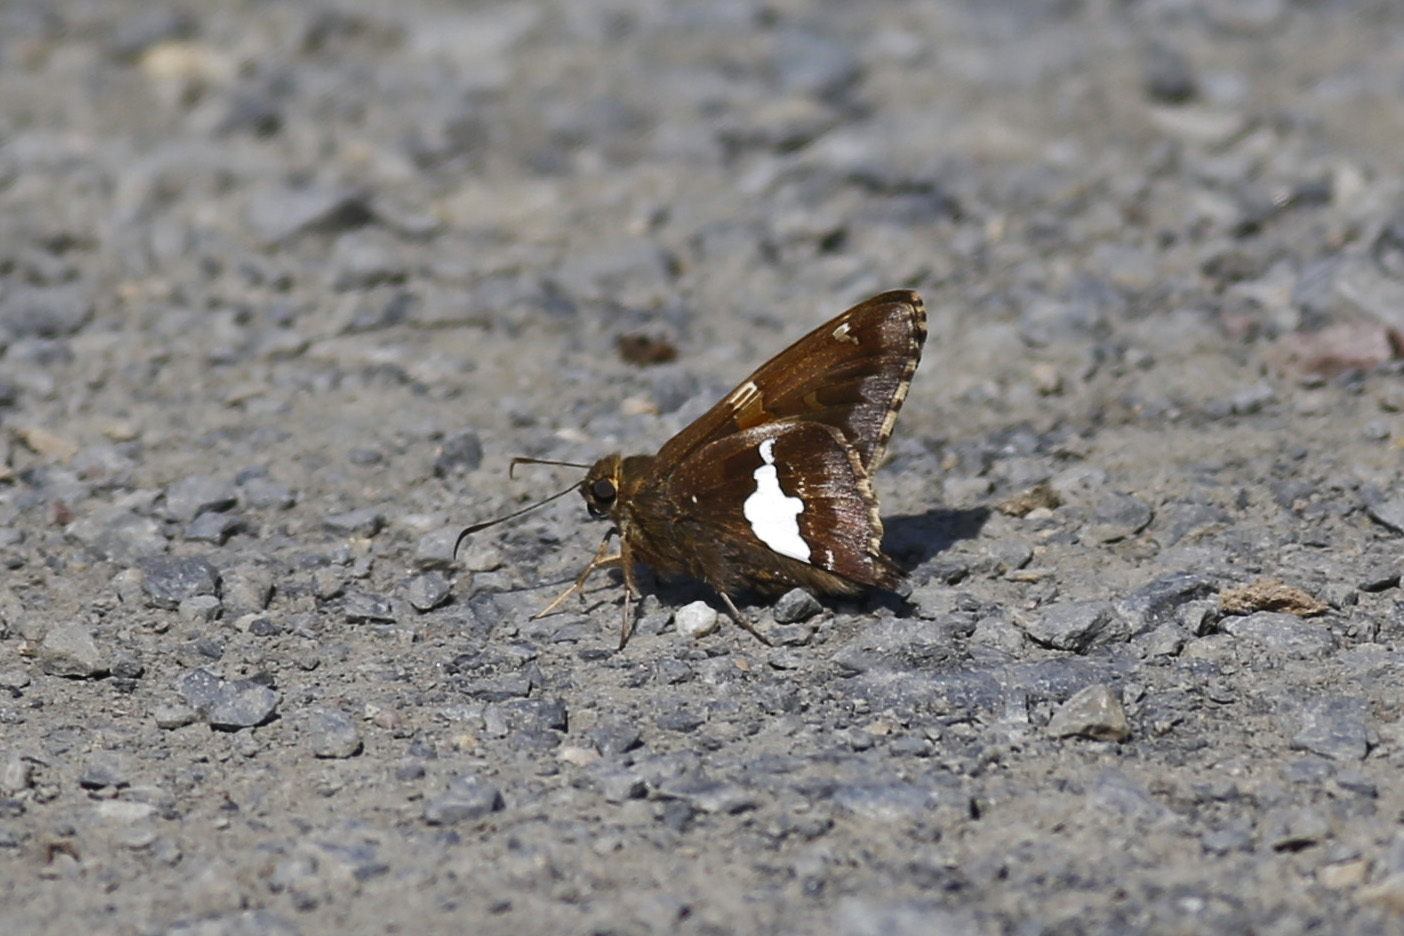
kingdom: Animalia
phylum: Arthropoda
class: Insecta
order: Lepidoptera
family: Hesperiidae
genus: Epargyreus
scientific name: Epargyreus clarus
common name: Silver-spotted skipper
